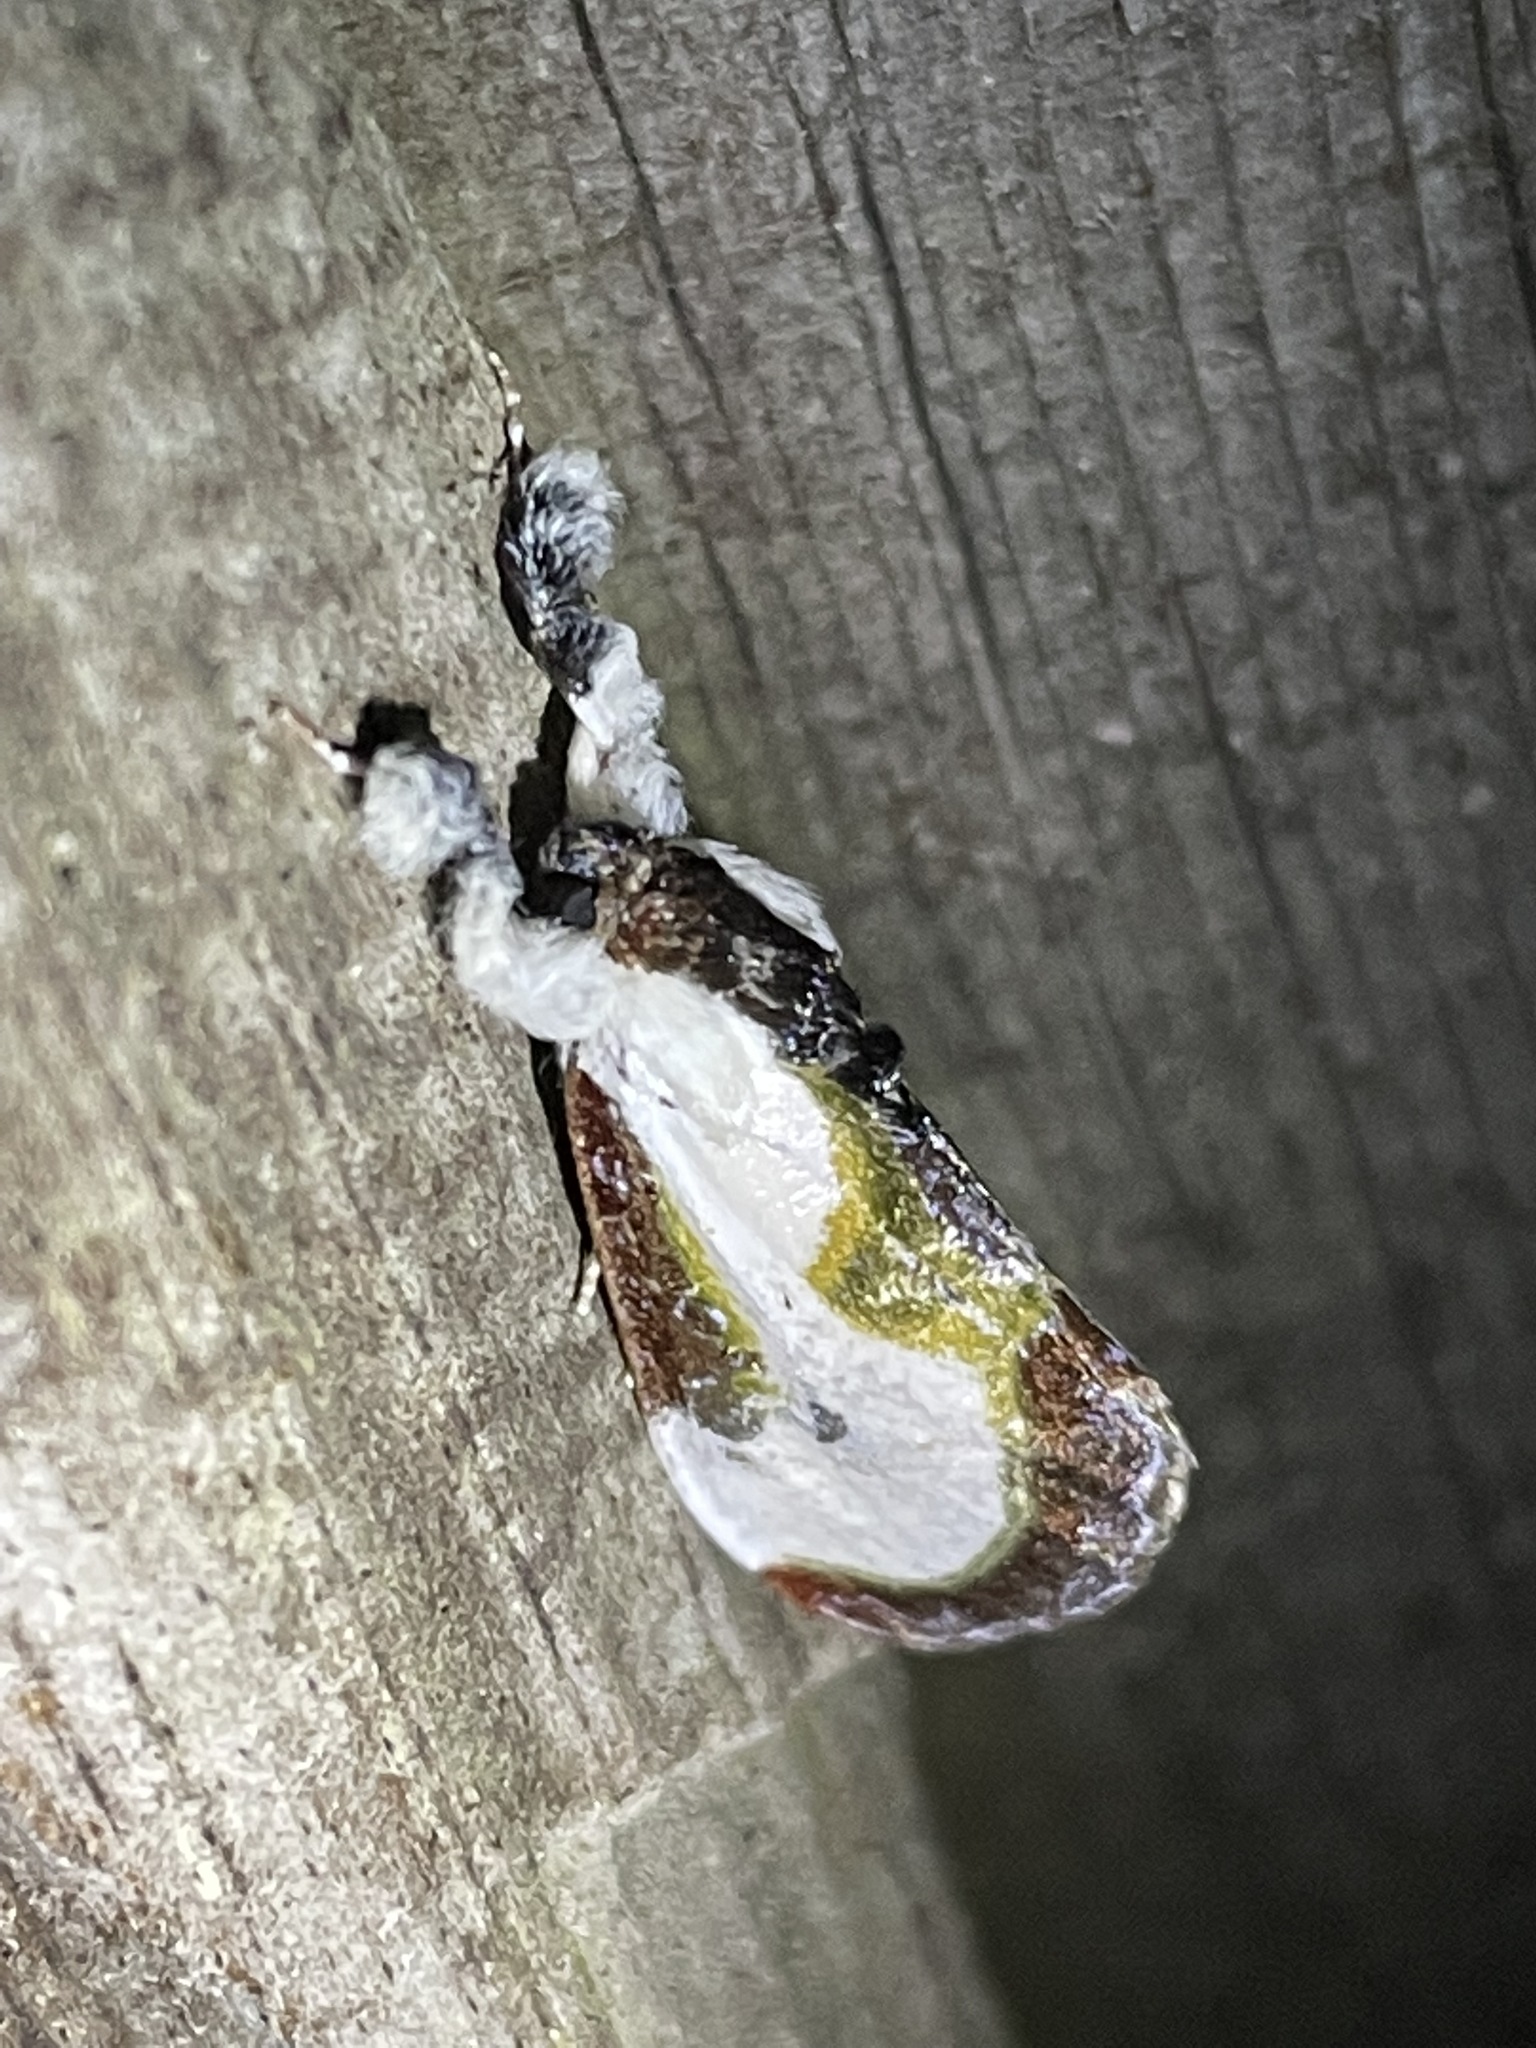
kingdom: Animalia
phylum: Arthropoda
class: Insecta
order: Lepidoptera
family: Noctuidae
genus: Eudryas
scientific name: Eudryas grata
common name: Beautiful wood-nymph
